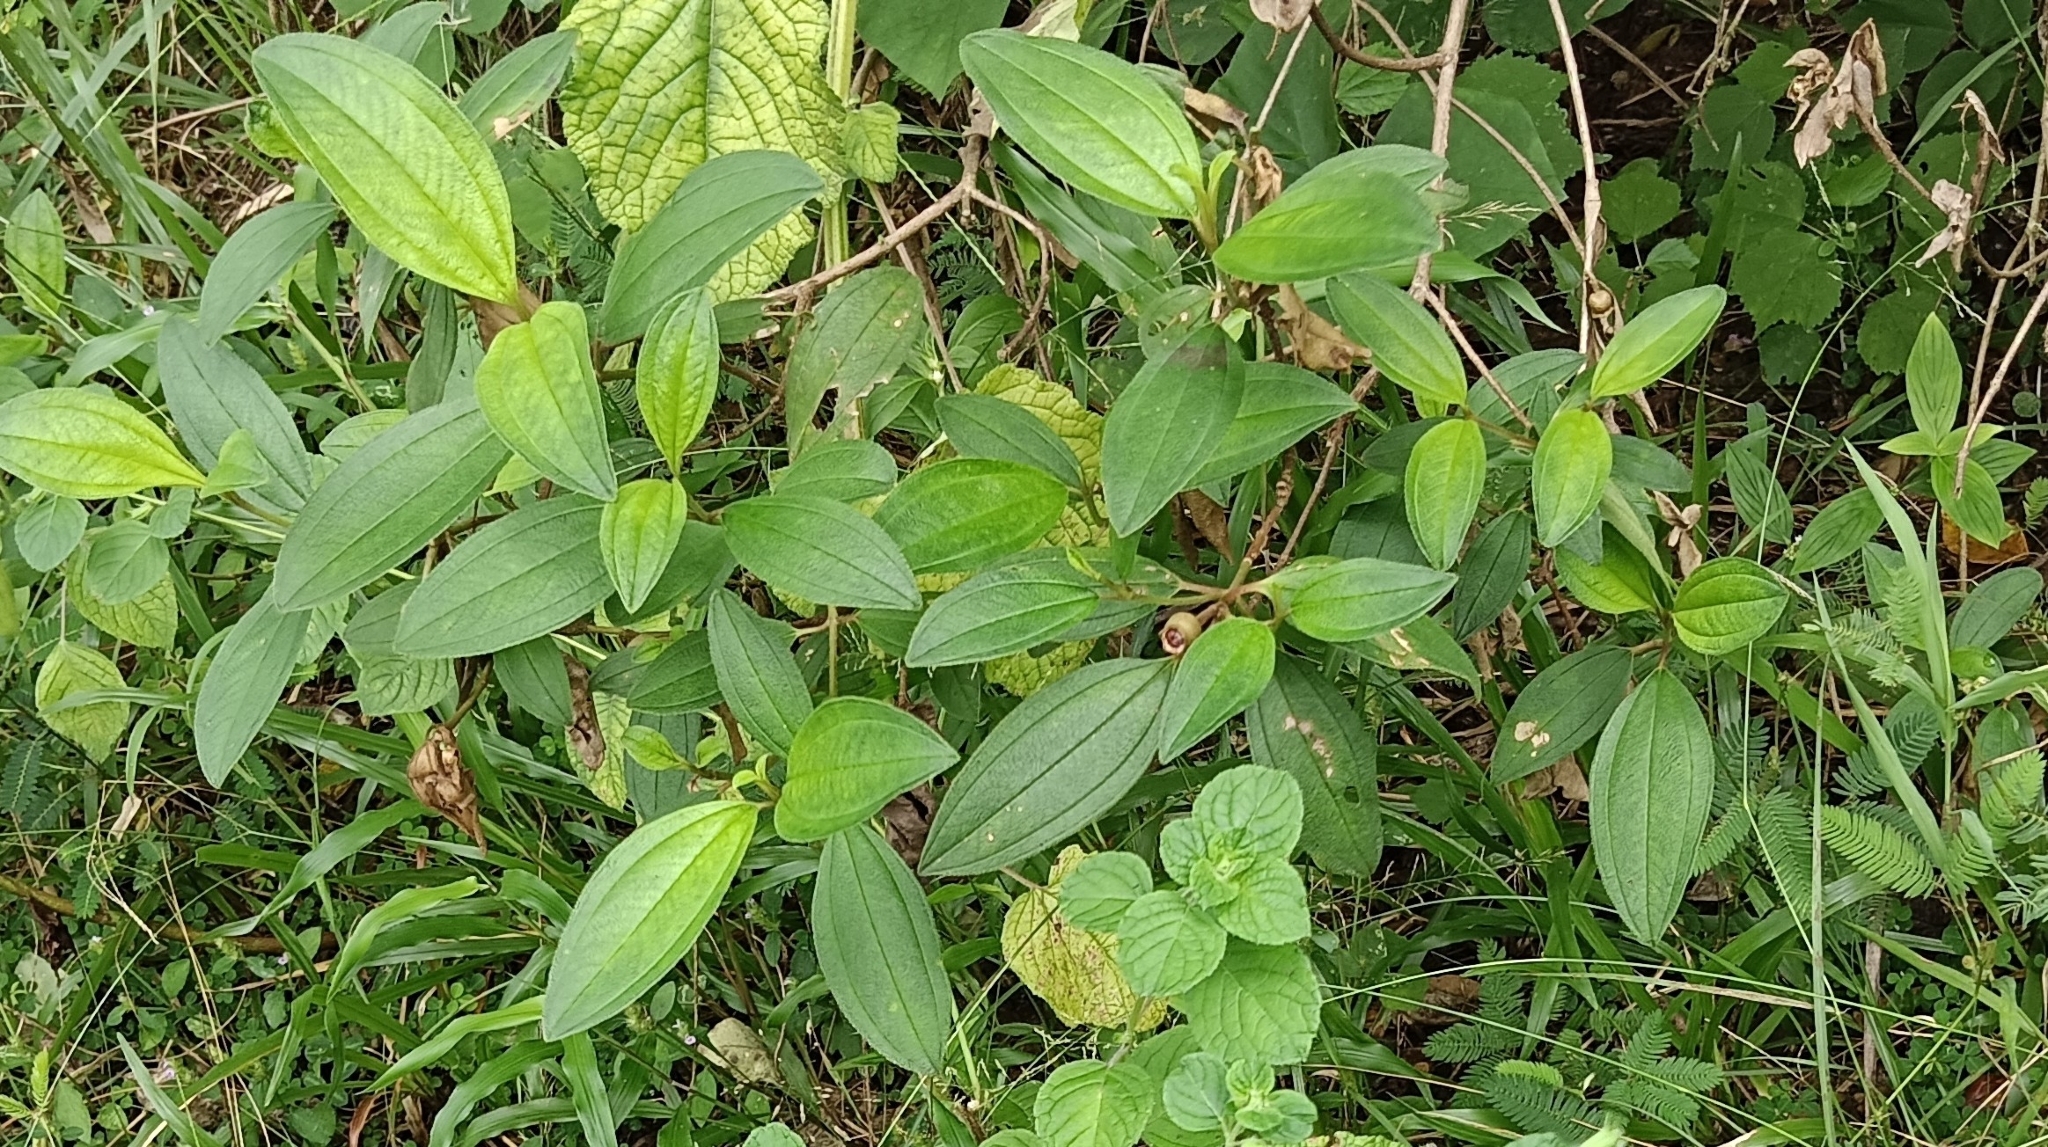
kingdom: Plantae
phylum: Tracheophyta
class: Magnoliopsida
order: Myrtales
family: Melastomataceae
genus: Melastoma
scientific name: Melastoma malabathricum
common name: Indian-rhododendron
